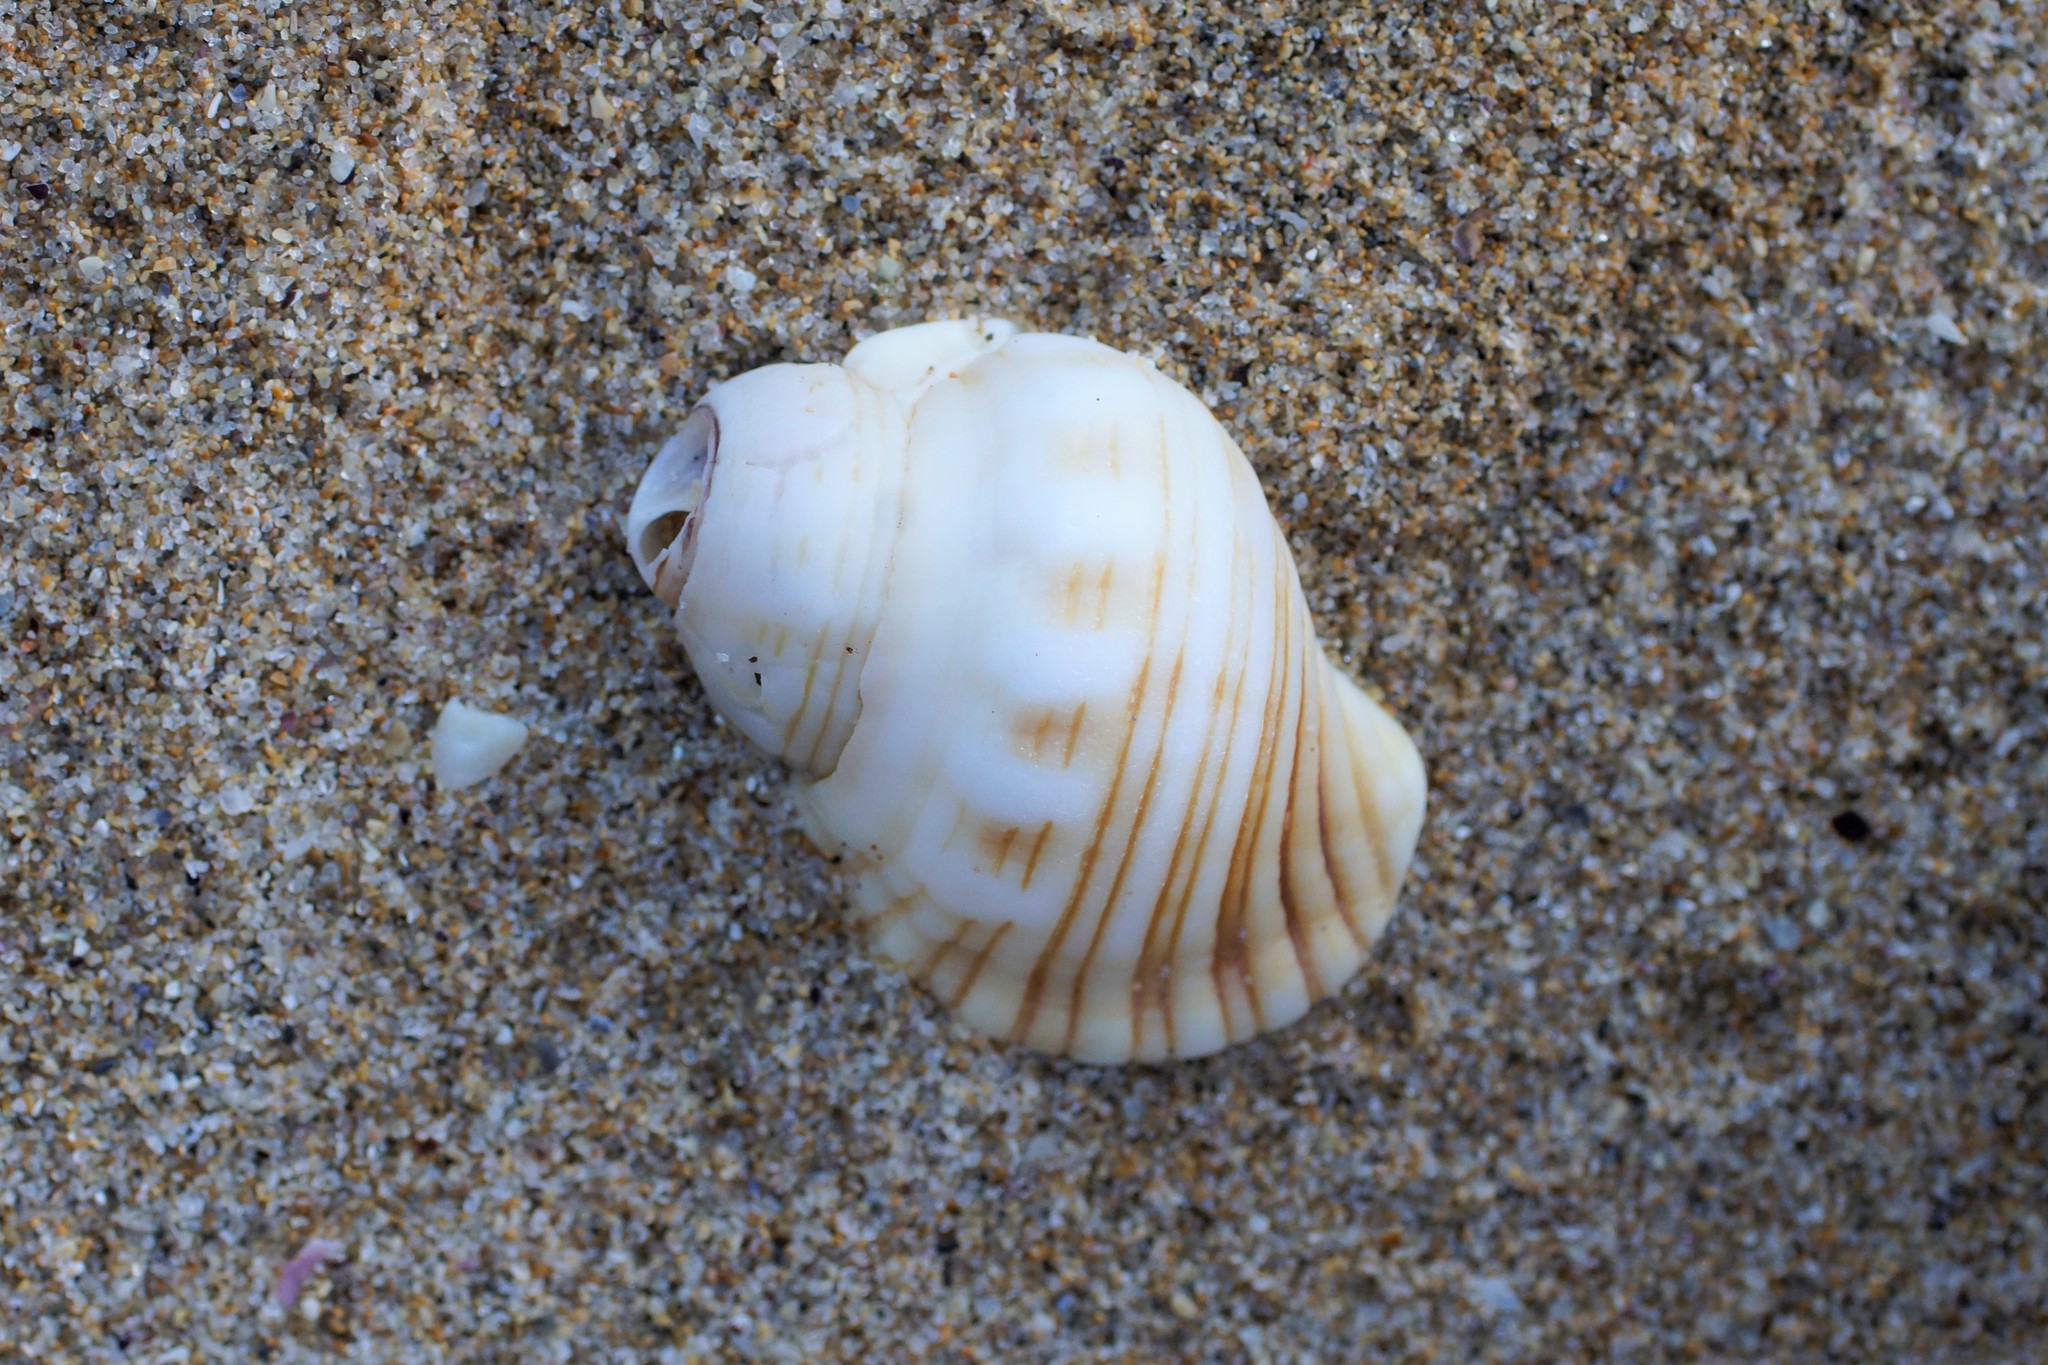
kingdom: Animalia
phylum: Mollusca
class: Gastropoda
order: Littorinimorpha
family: Cymatiidae
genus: Cabestana
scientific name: Cabestana spengleri
